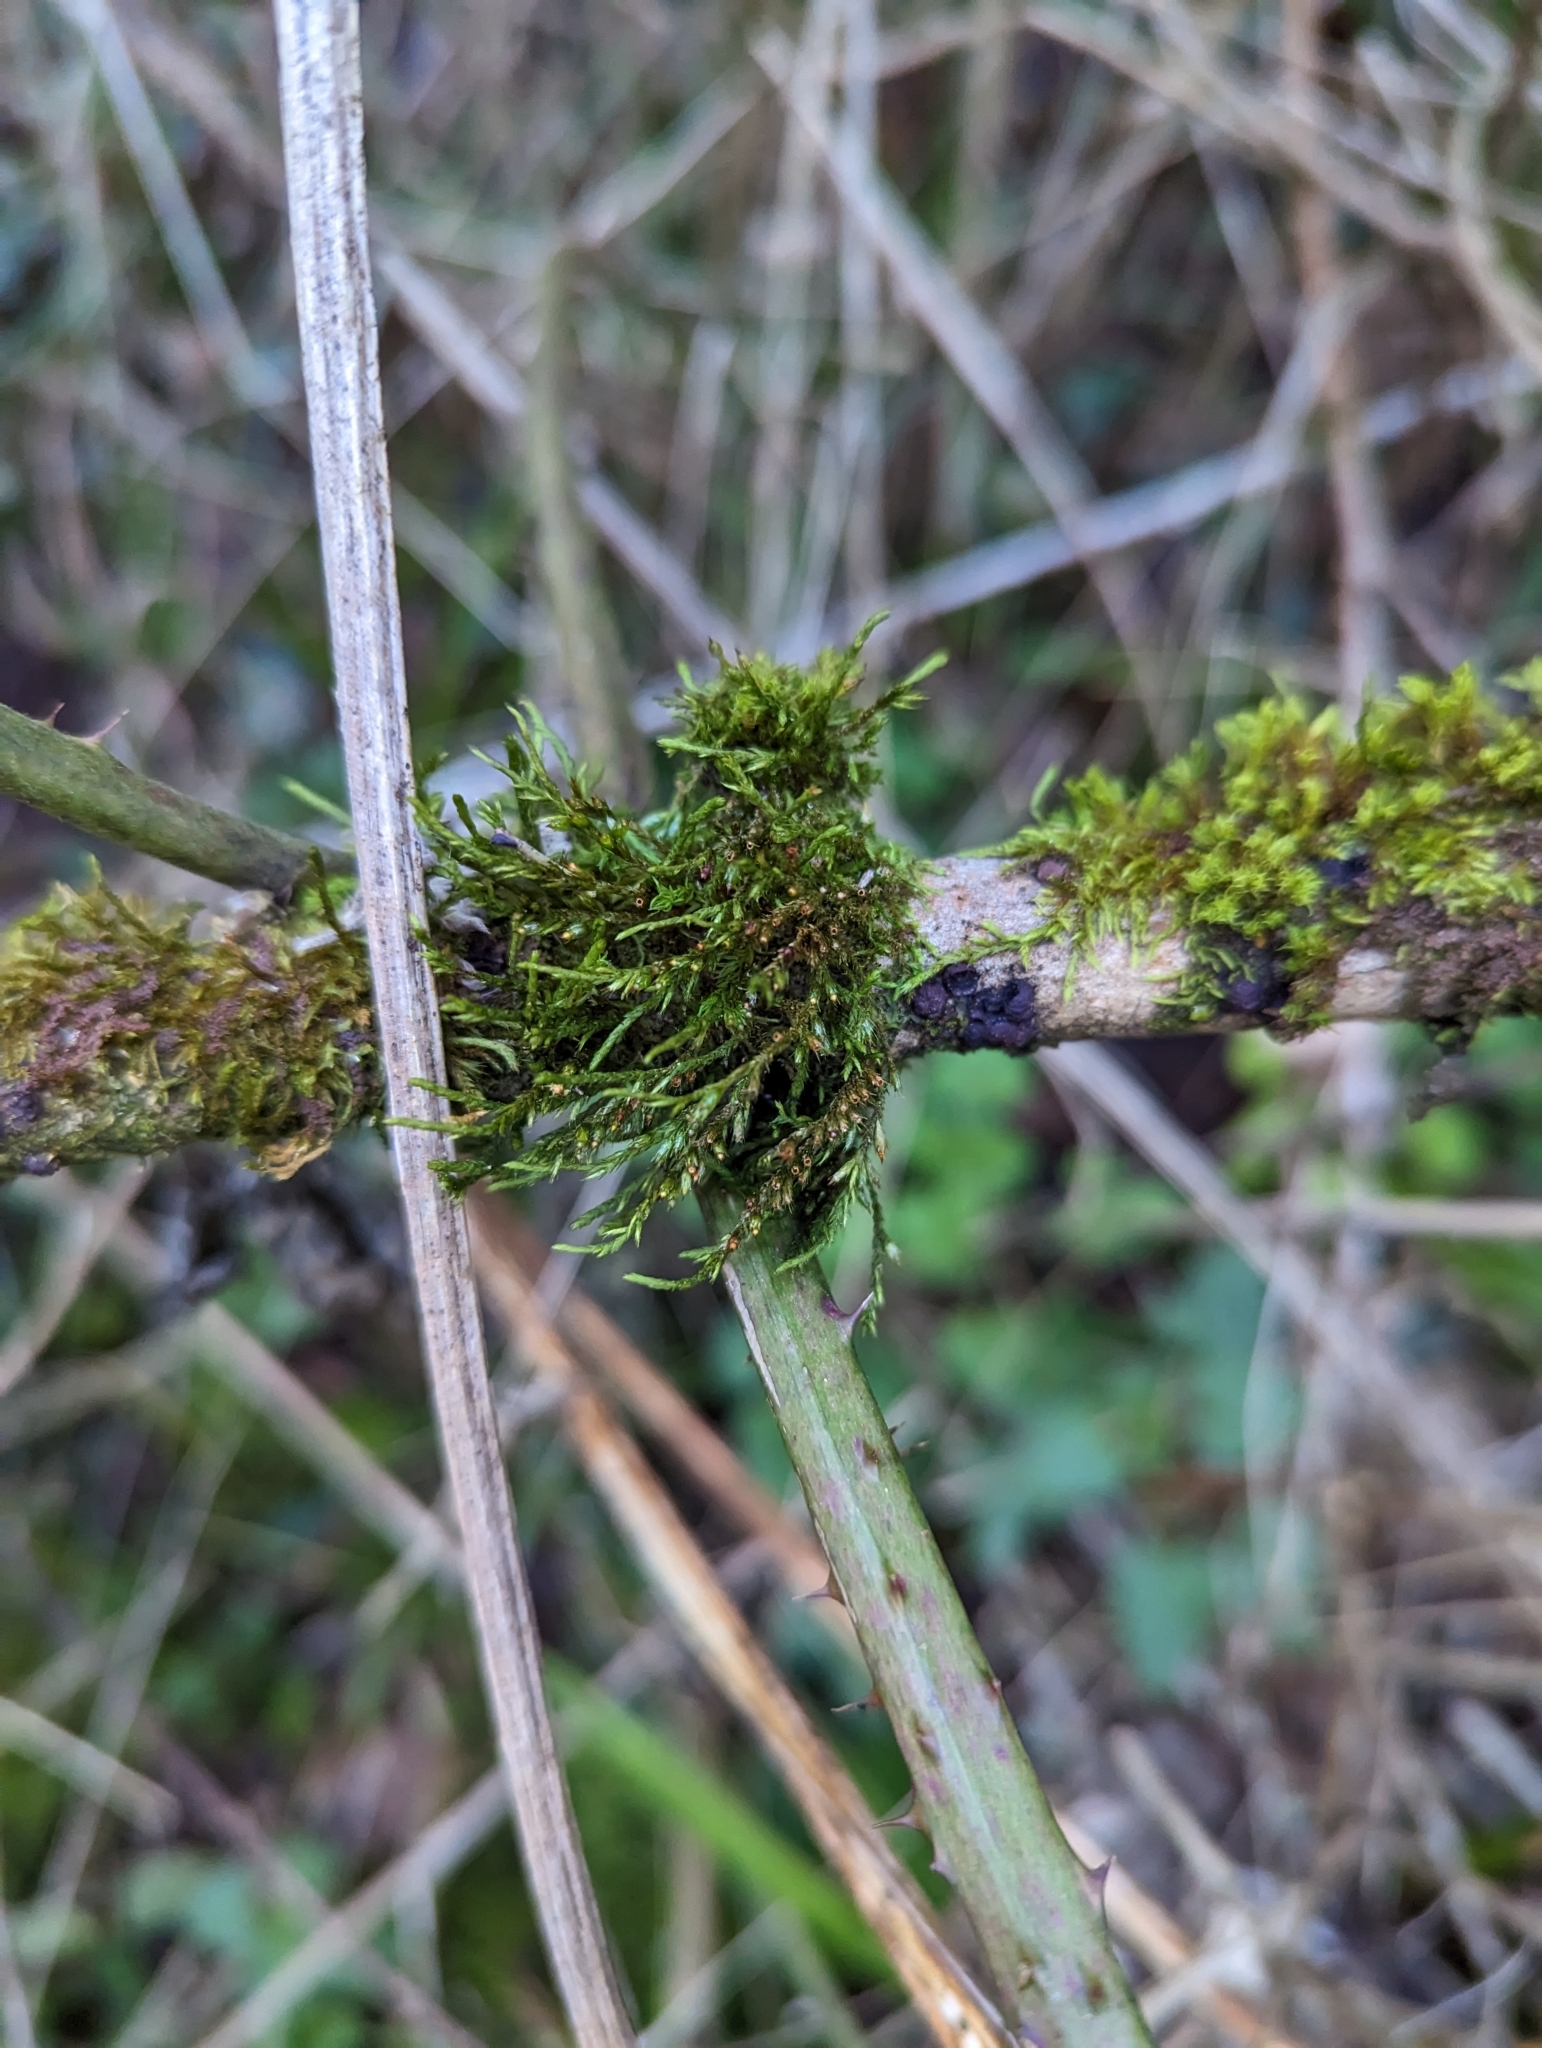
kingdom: Plantae
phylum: Bryophyta
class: Bryopsida
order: Hypnales
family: Cryphaeaceae
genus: Cryphaea
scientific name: Cryphaea heteromalla
